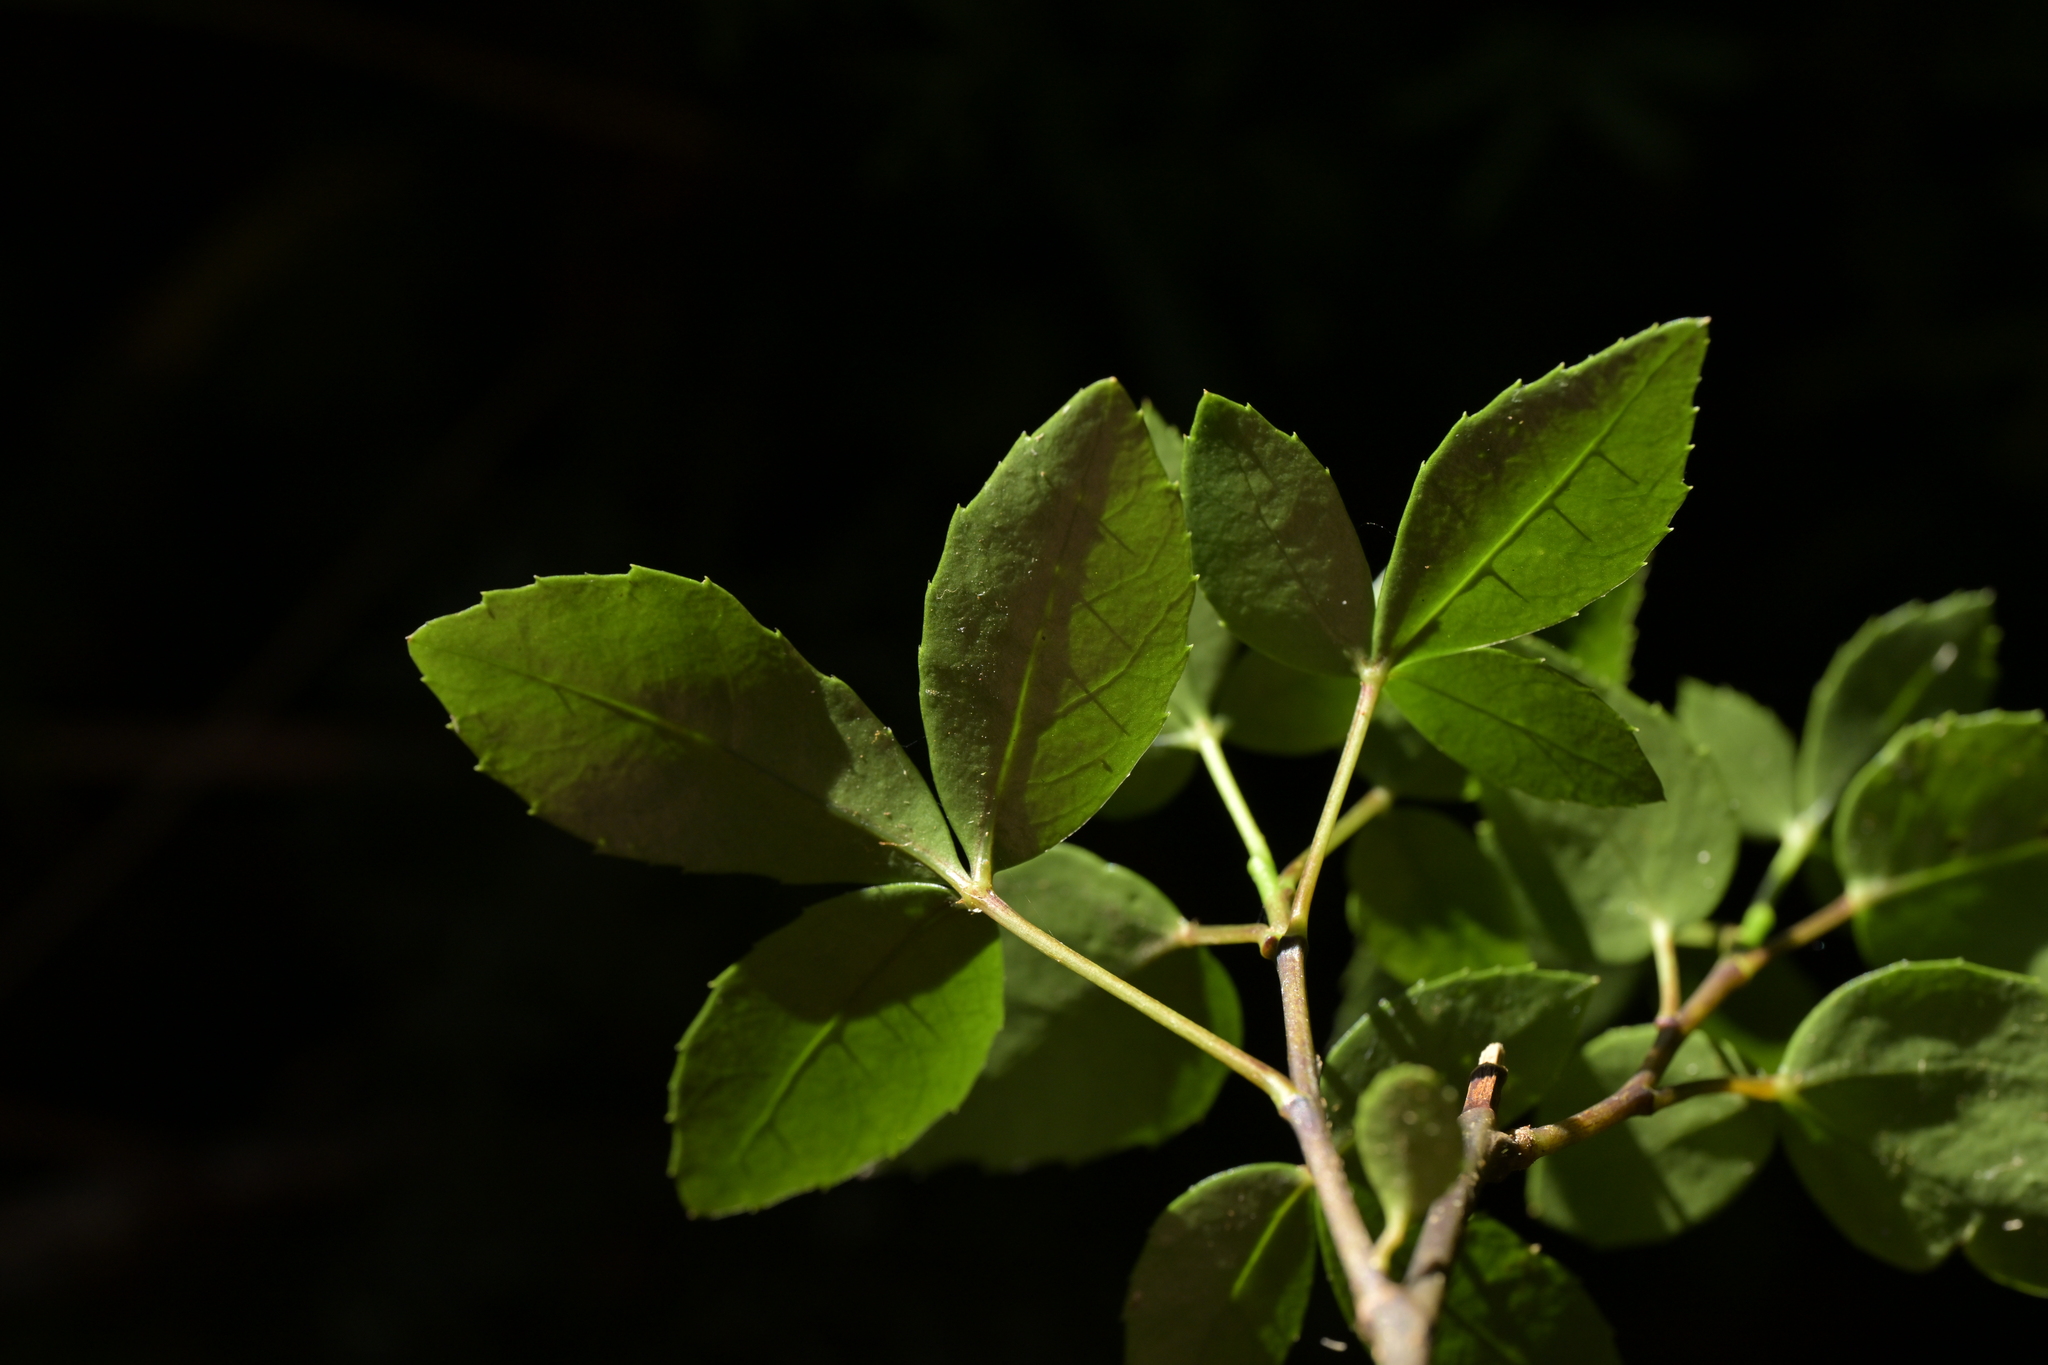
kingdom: Plantae
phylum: Tracheophyta
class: Magnoliopsida
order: Apiales
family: Araliaceae
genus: Neopanax
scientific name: Neopanax colensoi
